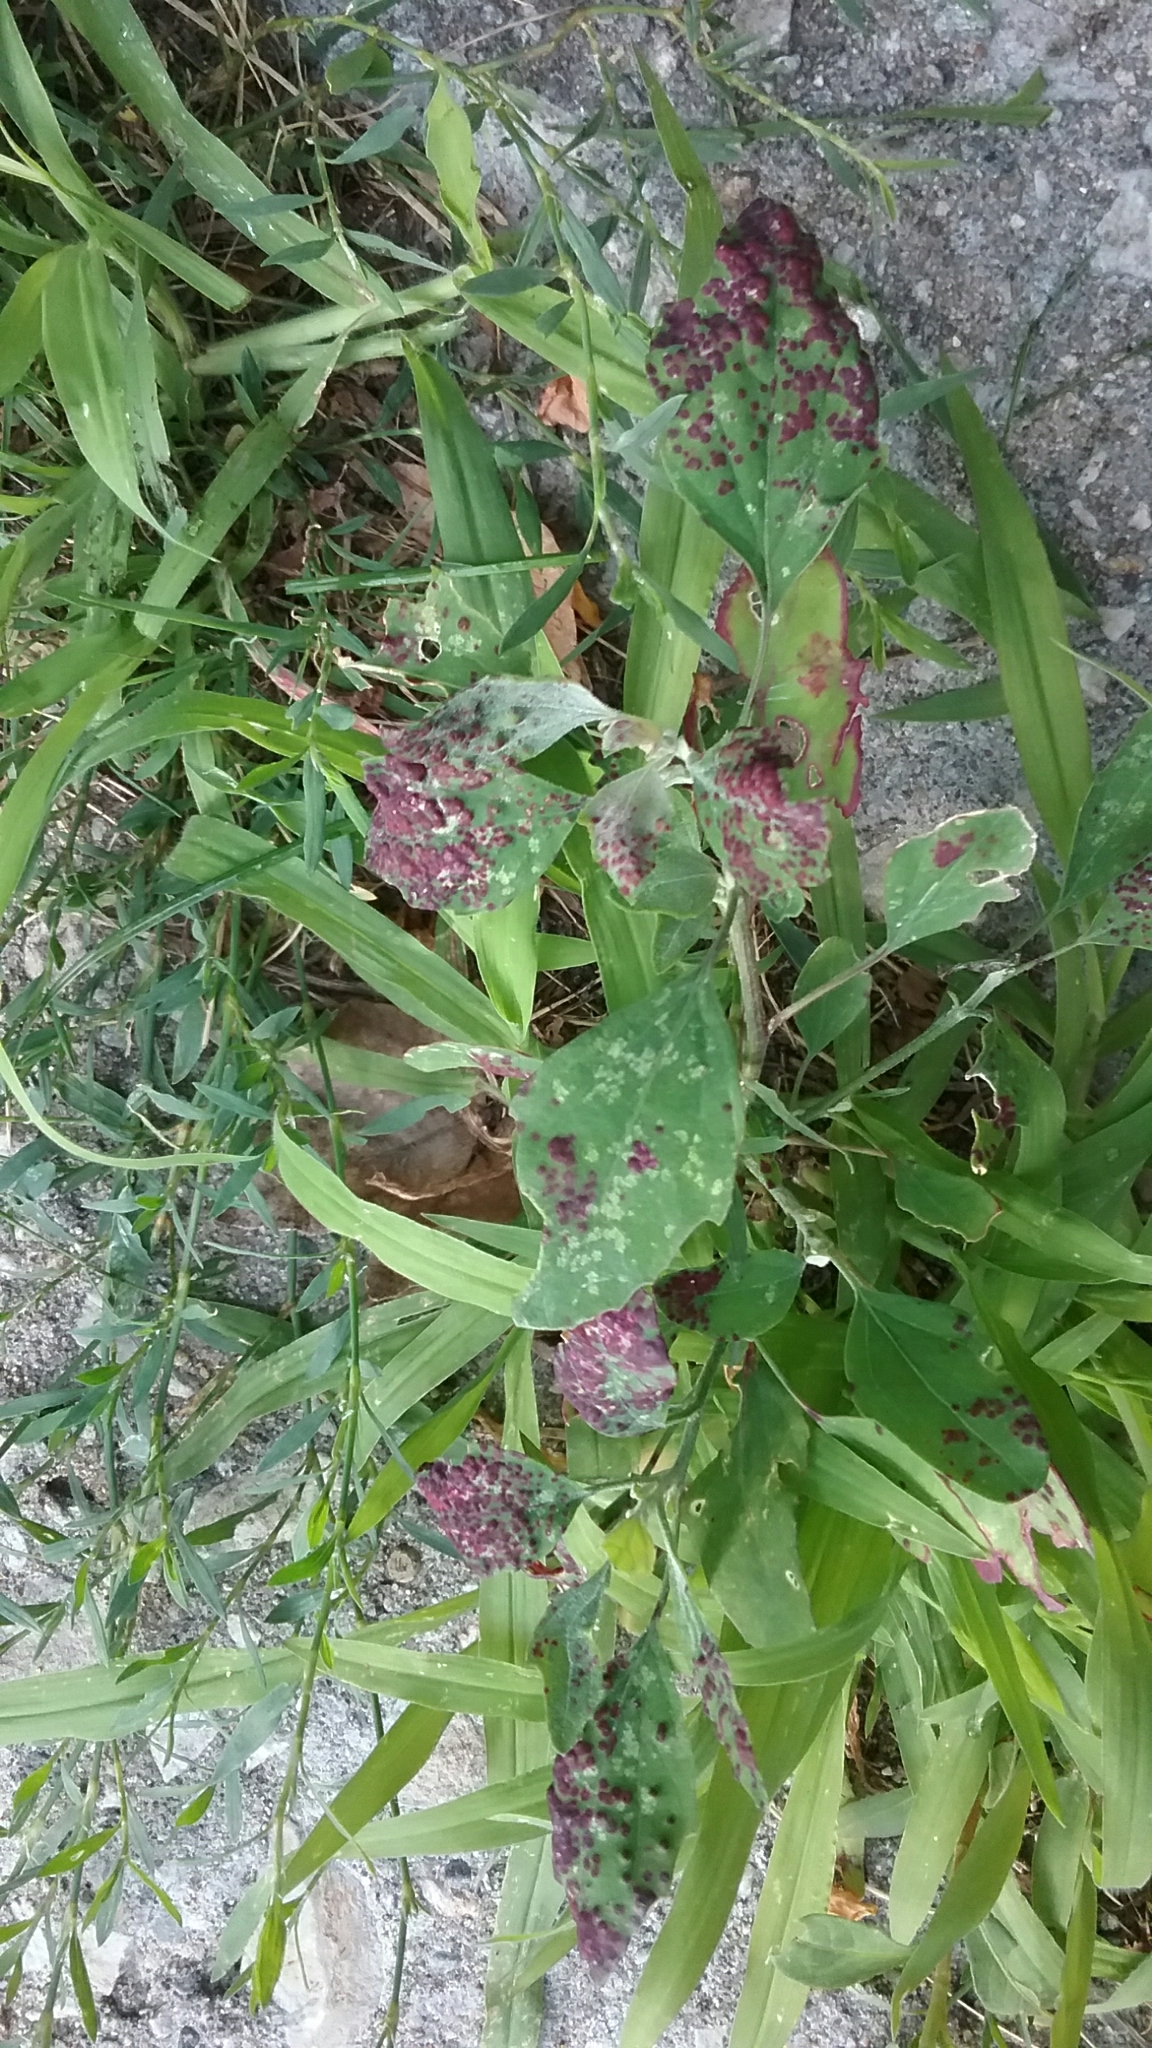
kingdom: Animalia
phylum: Arthropoda
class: Insecta
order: Hemiptera
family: Cicadellidae
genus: Norvellina
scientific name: Norvellina chenopodii
